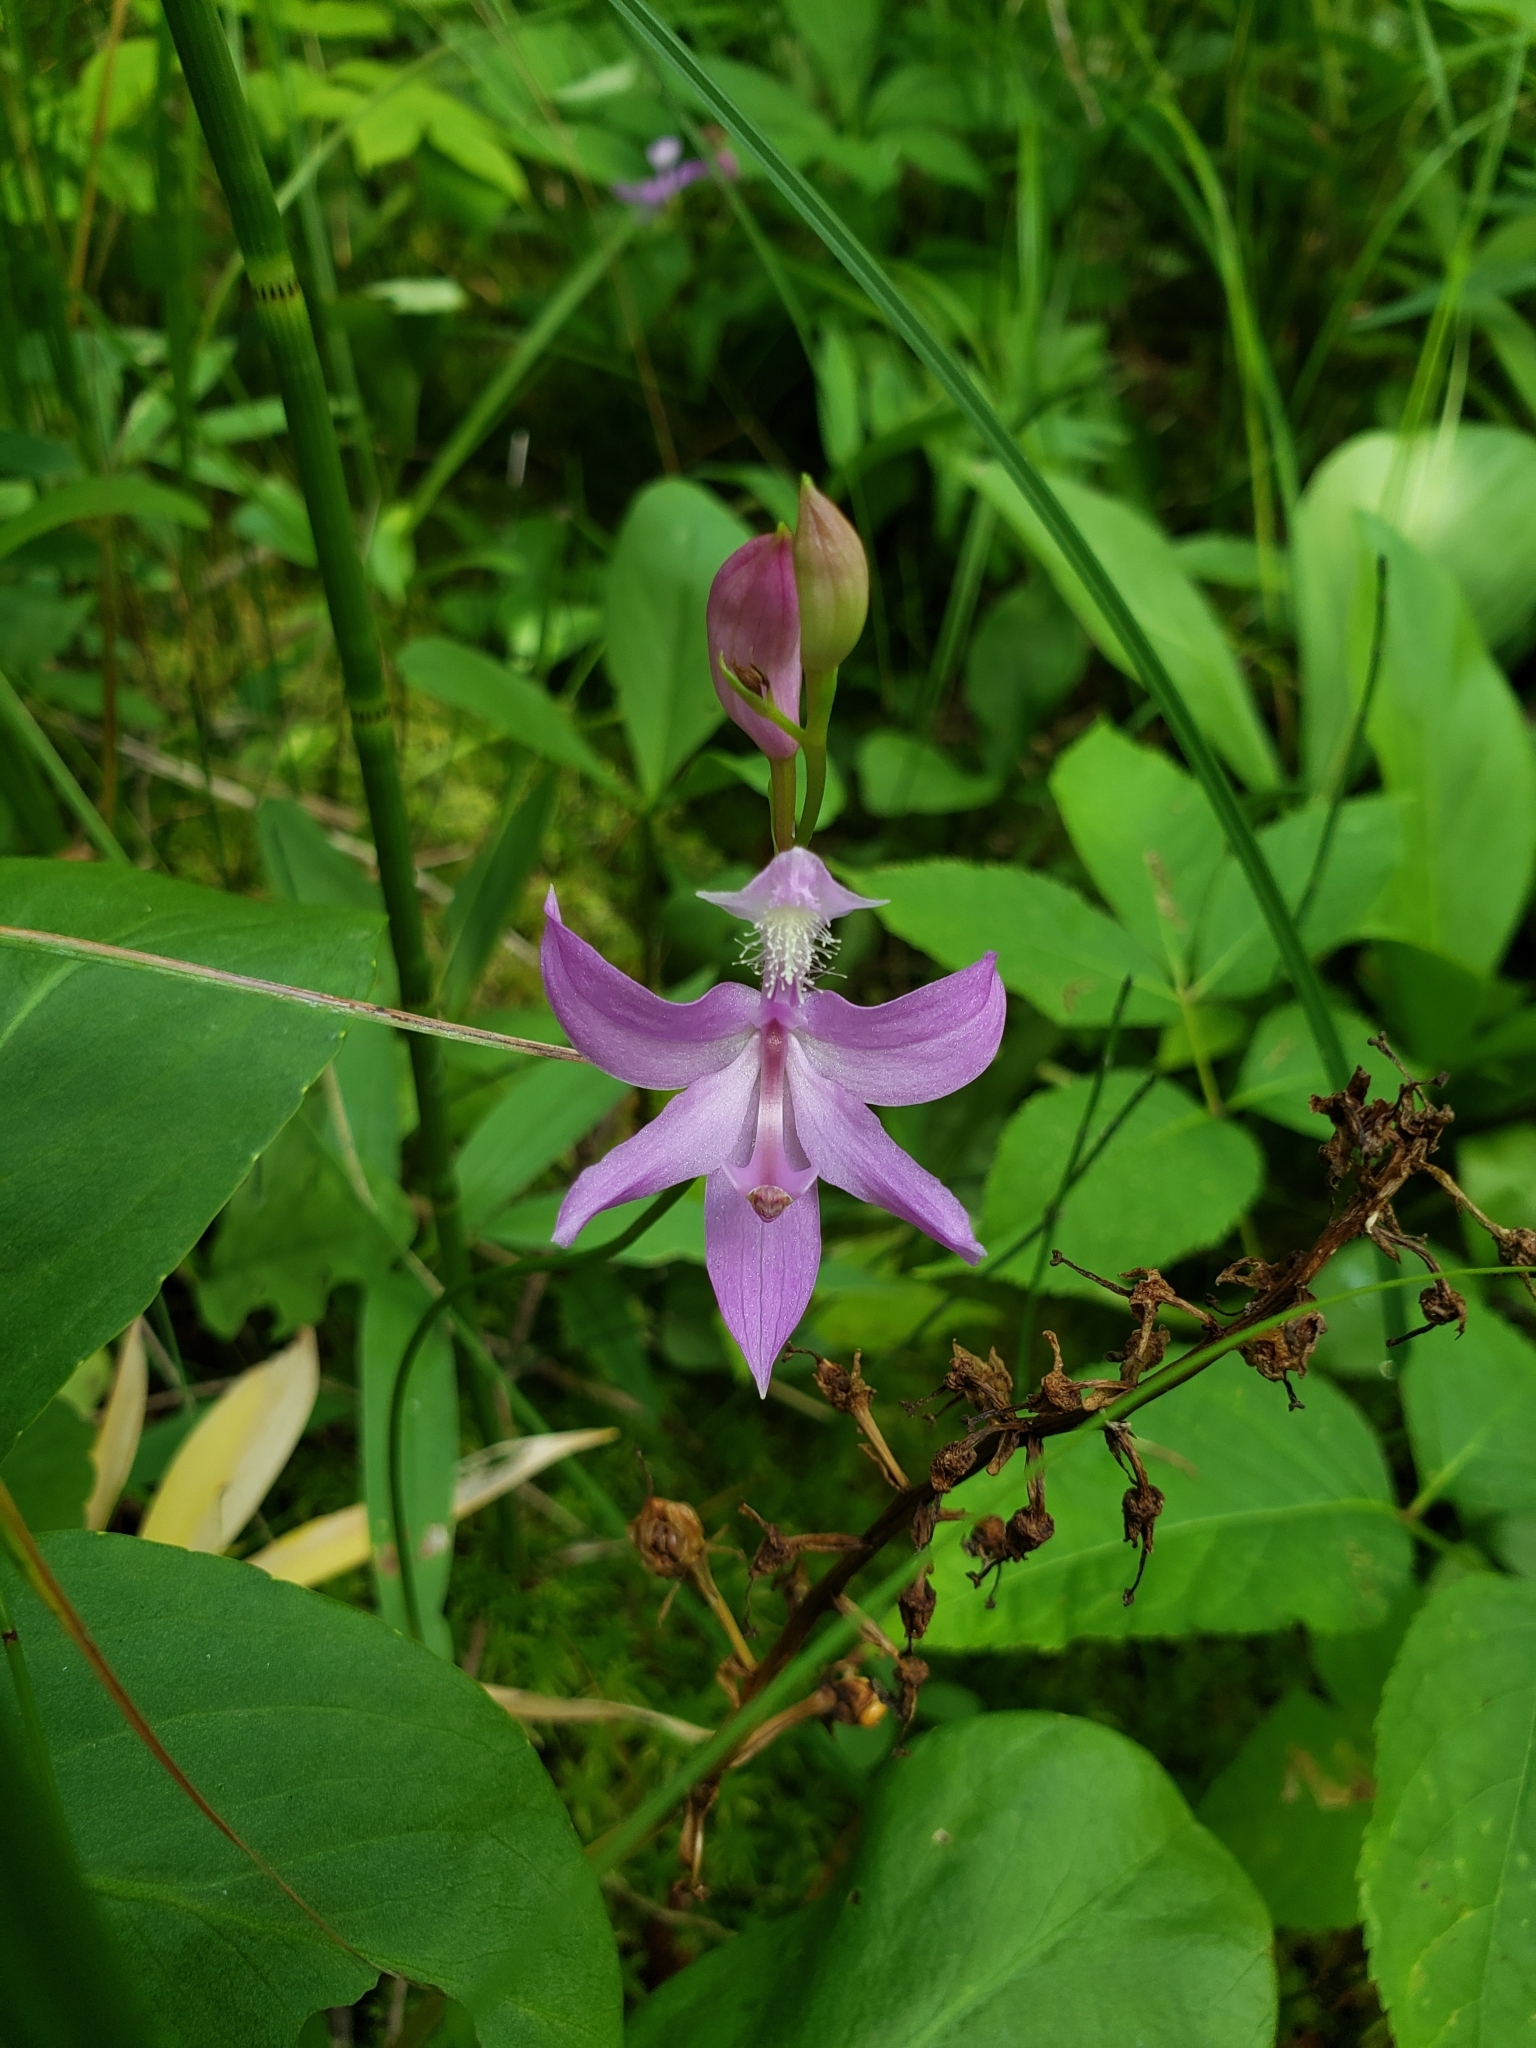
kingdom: Plantae
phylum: Tracheophyta
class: Liliopsida
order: Asparagales
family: Orchidaceae
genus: Calopogon
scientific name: Calopogon tuberosus
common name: Grass-pink
